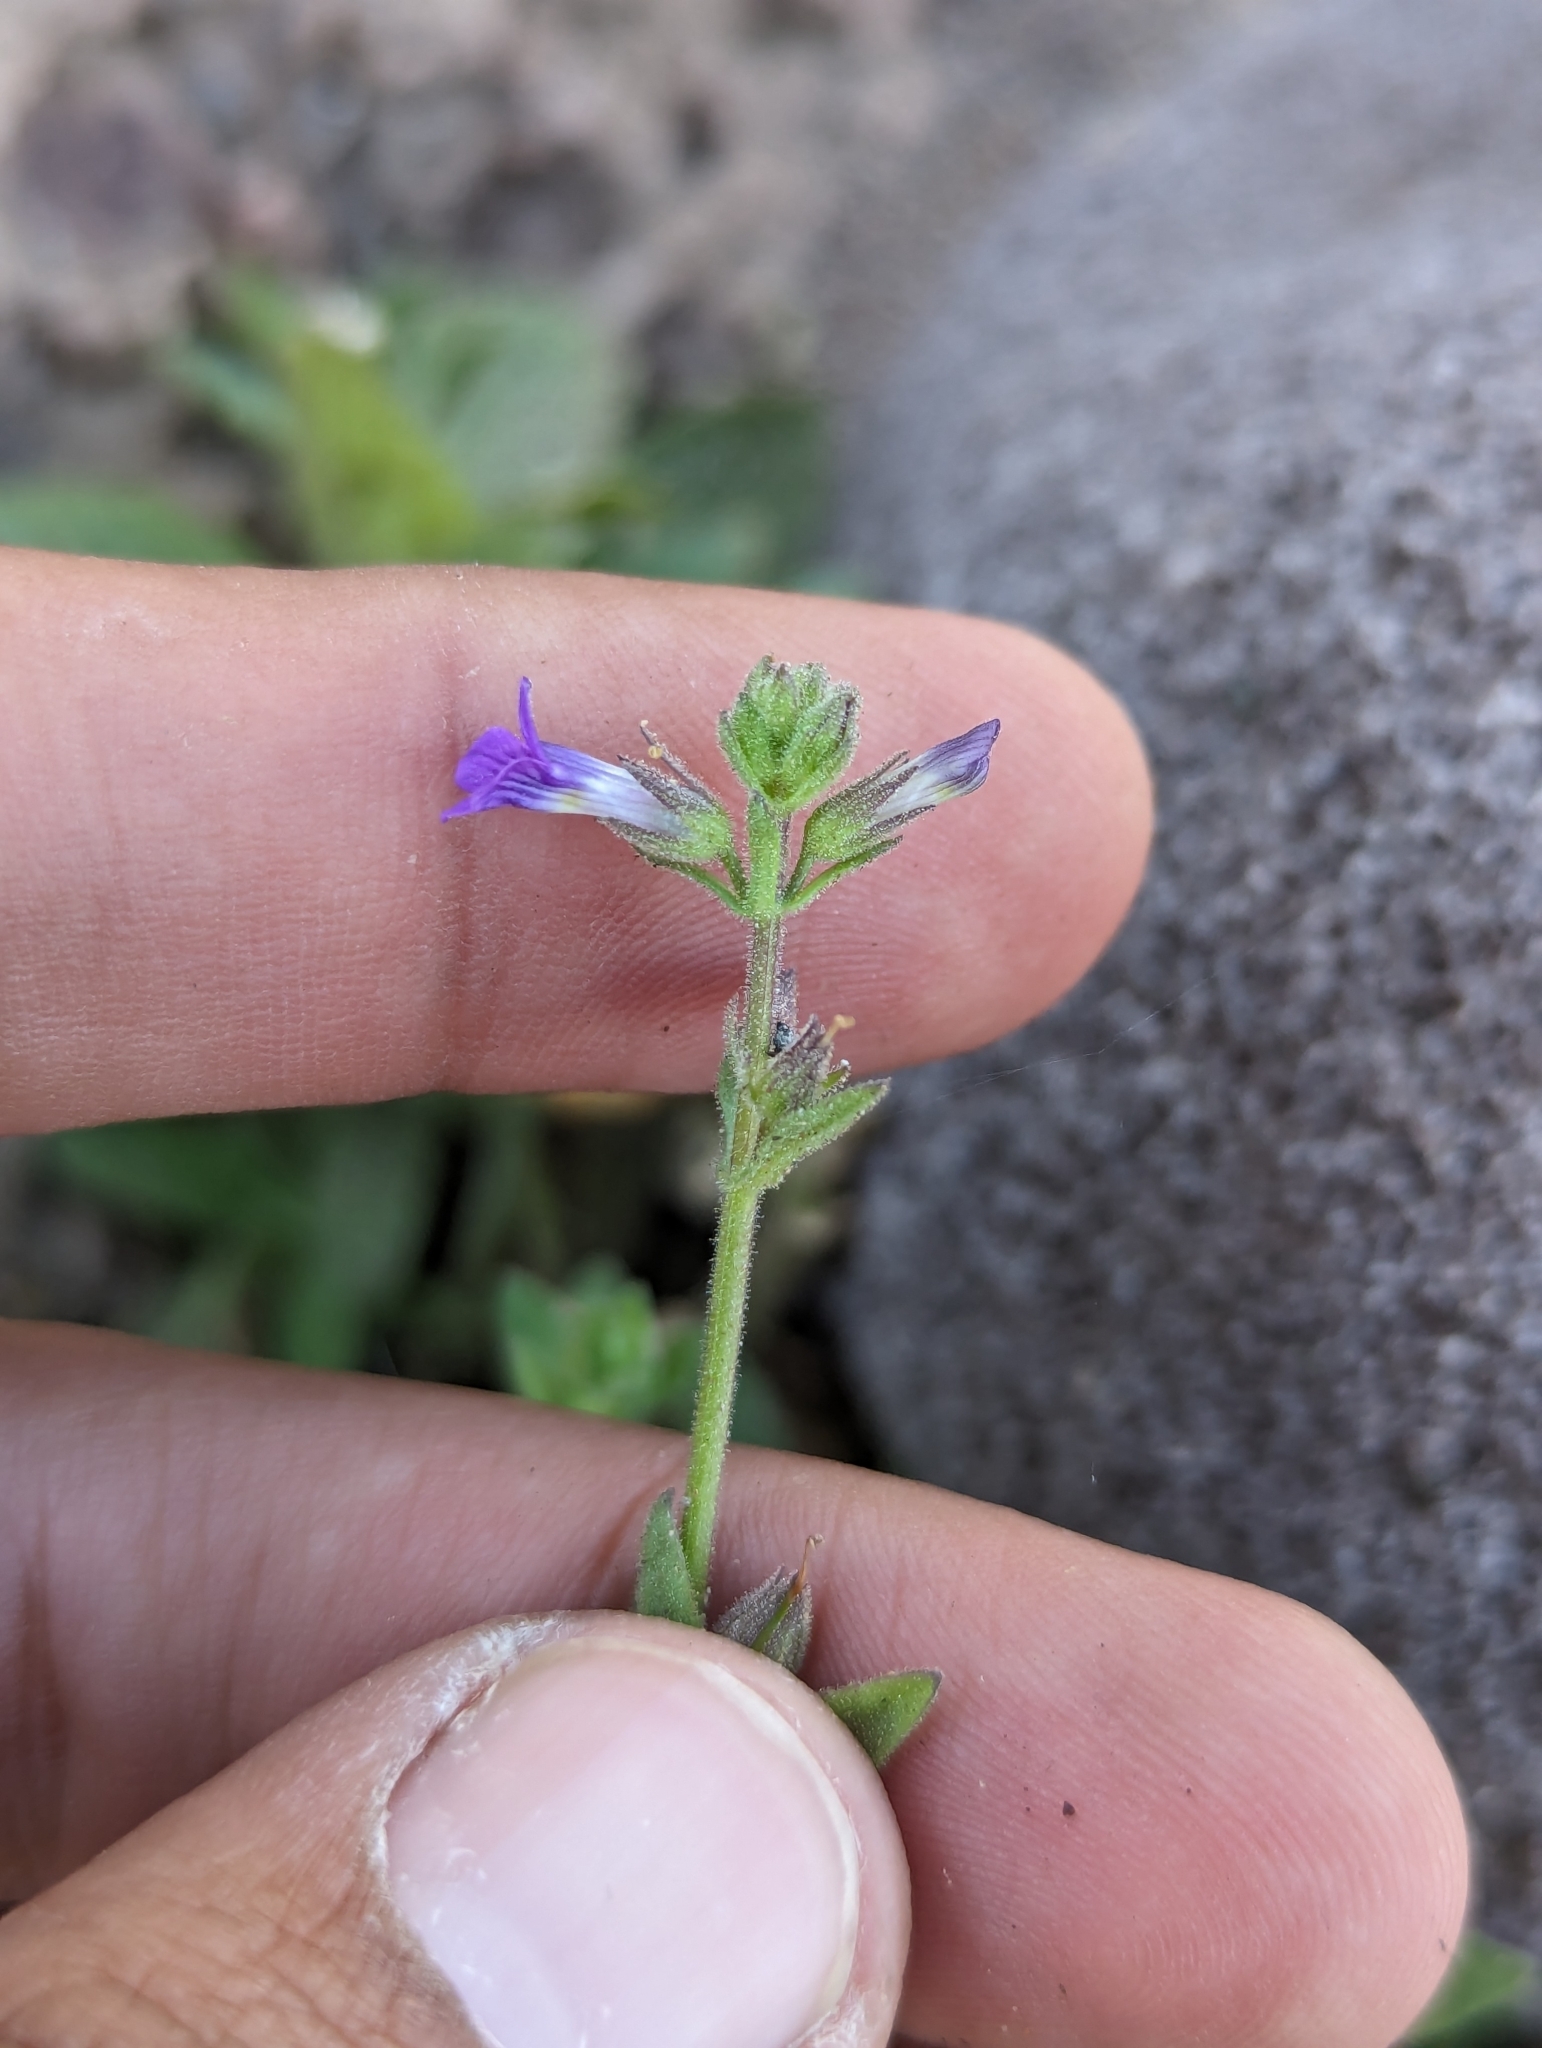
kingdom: Plantae
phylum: Tracheophyta
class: Magnoliopsida
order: Lamiales
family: Plantaginaceae
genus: Stemodia
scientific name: Stemodia durantifolia
